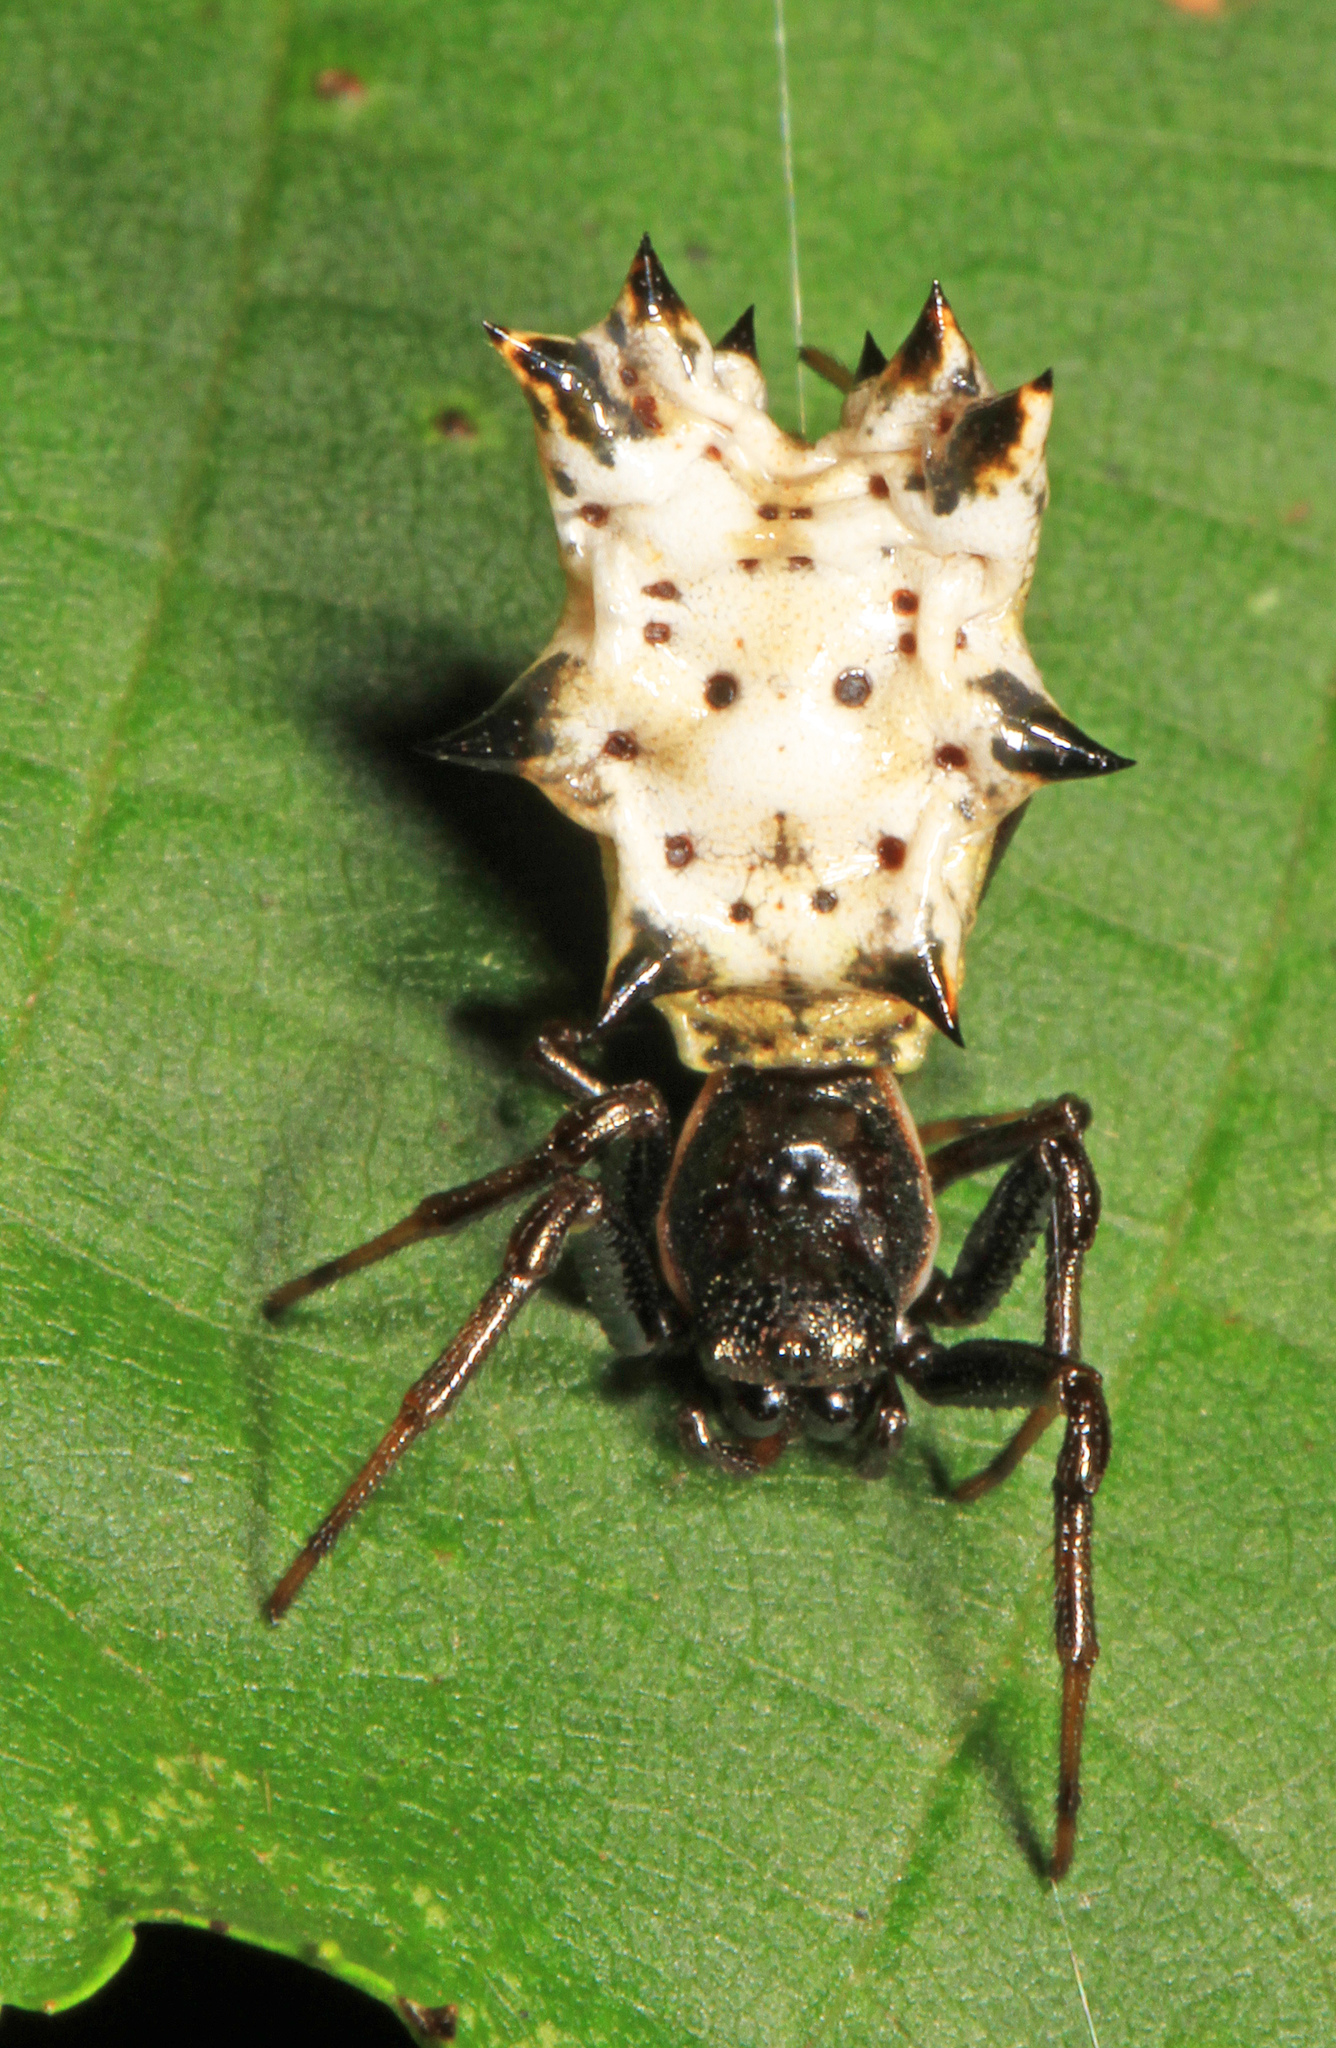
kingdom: Animalia
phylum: Arthropoda
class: Arachnida
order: Araneae
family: Araneidae
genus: Micrathena
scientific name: Micrathena gracilis
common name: Orb weavers
